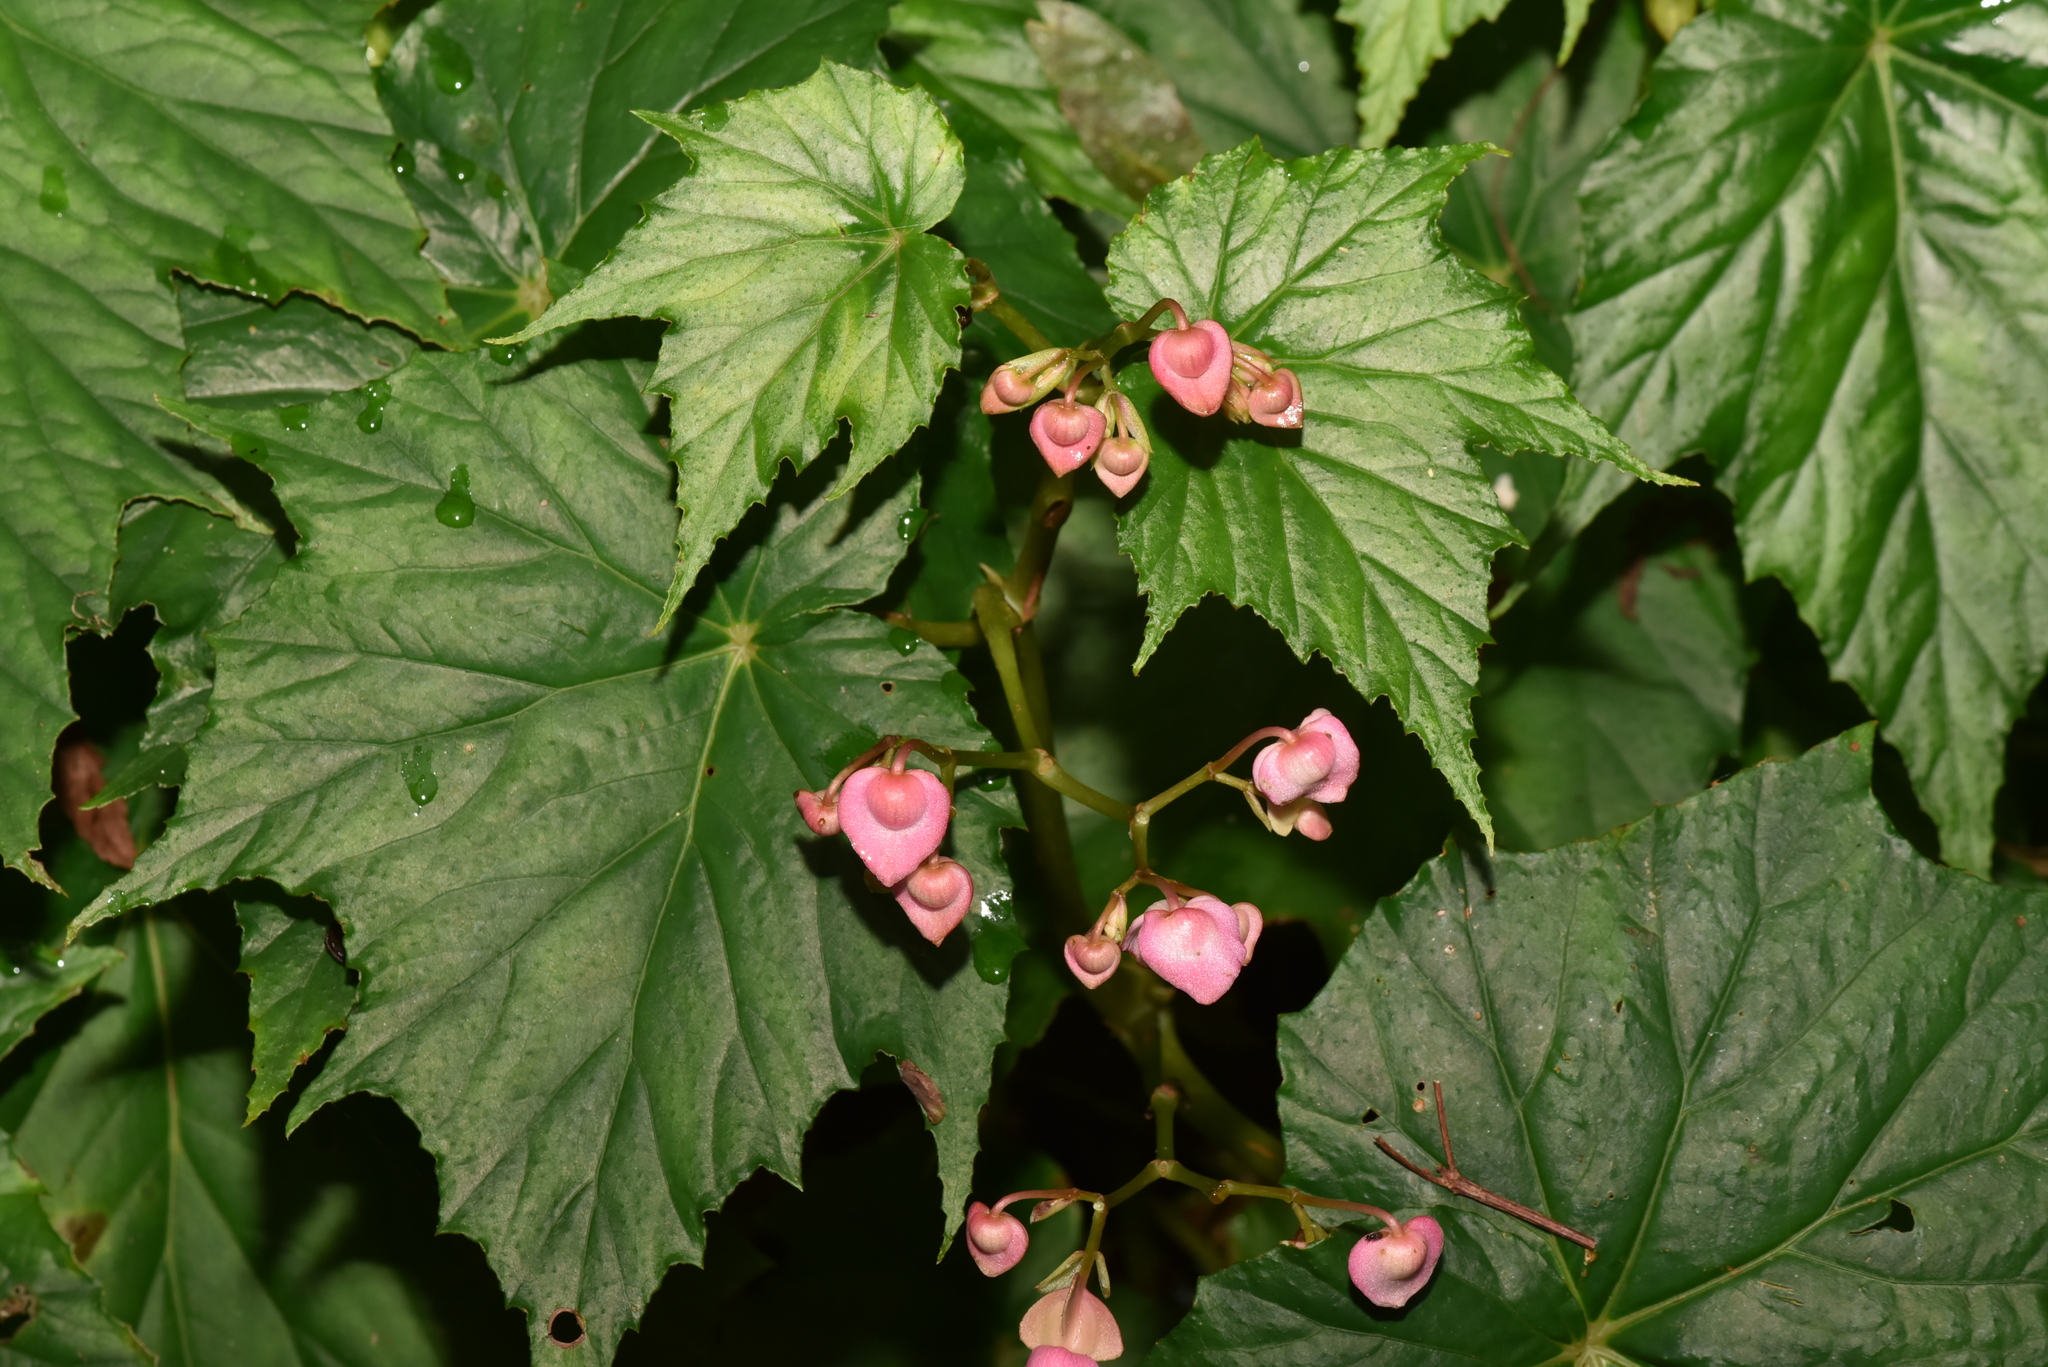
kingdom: Plantae
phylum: Tracheophyta
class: Magnoliopsida
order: Cucurbitales
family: Begoniaceae
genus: Begonia
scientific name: Begonia formosana
